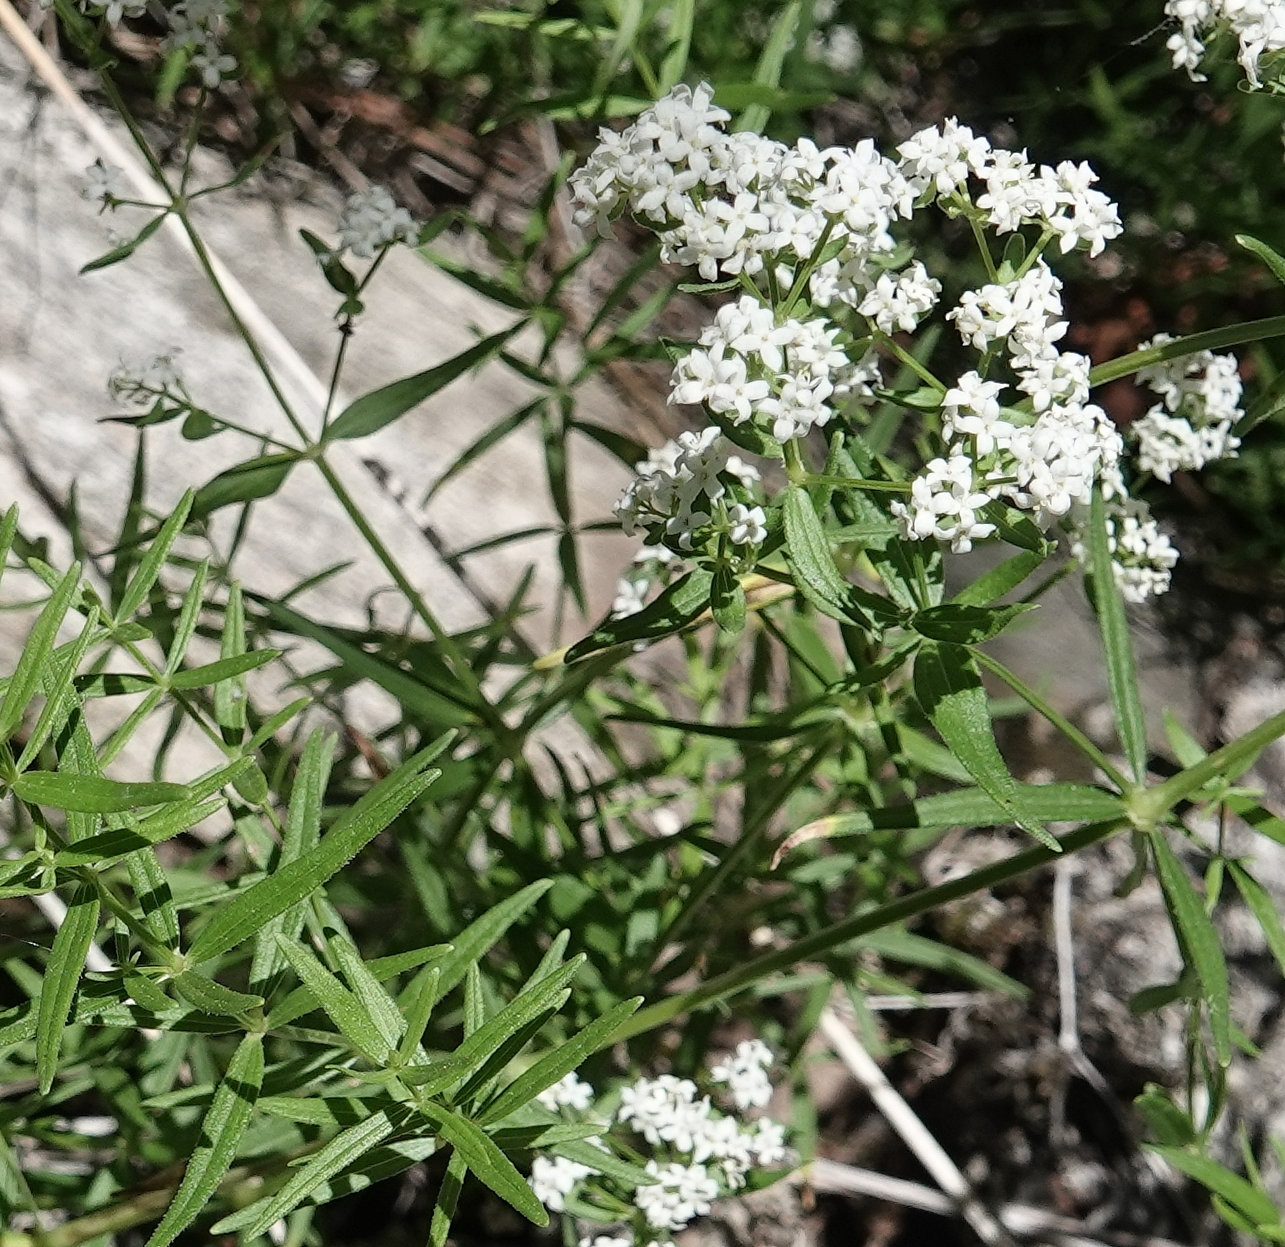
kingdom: Plantae
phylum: Tracheophyta
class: Magnoliopsida
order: Gentianales
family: Rubiaceae
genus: Galium
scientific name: Galium boreale
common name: Northern bedstraw
